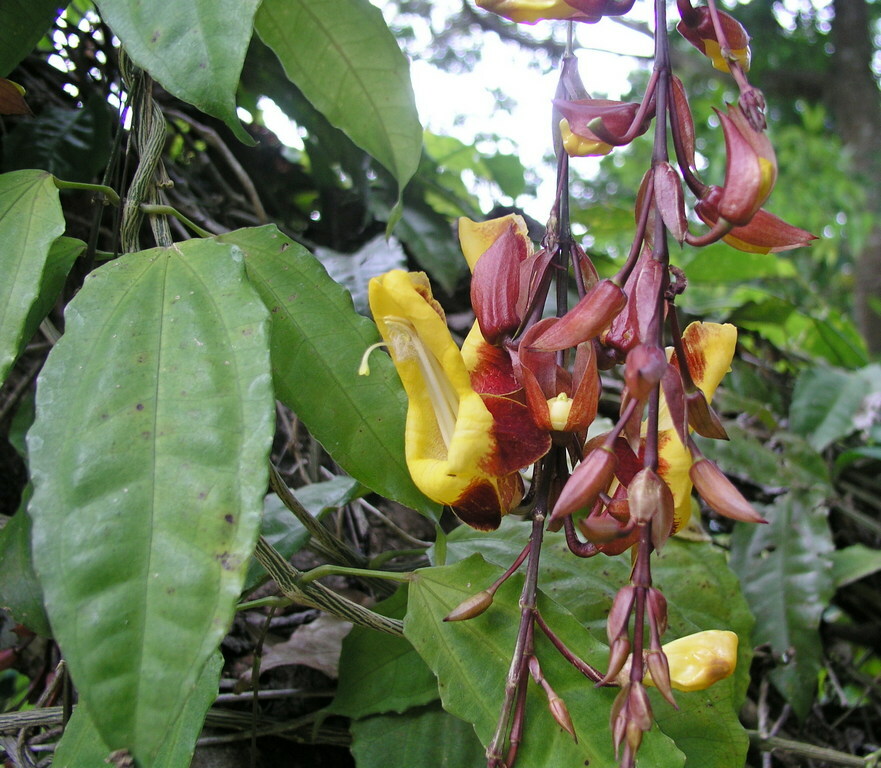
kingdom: Plantae
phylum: Tracheophyta
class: Magnoliopsida
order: Lamiales
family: Acanthaceae
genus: Thunbergia
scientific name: Thunbergia mysorensis
